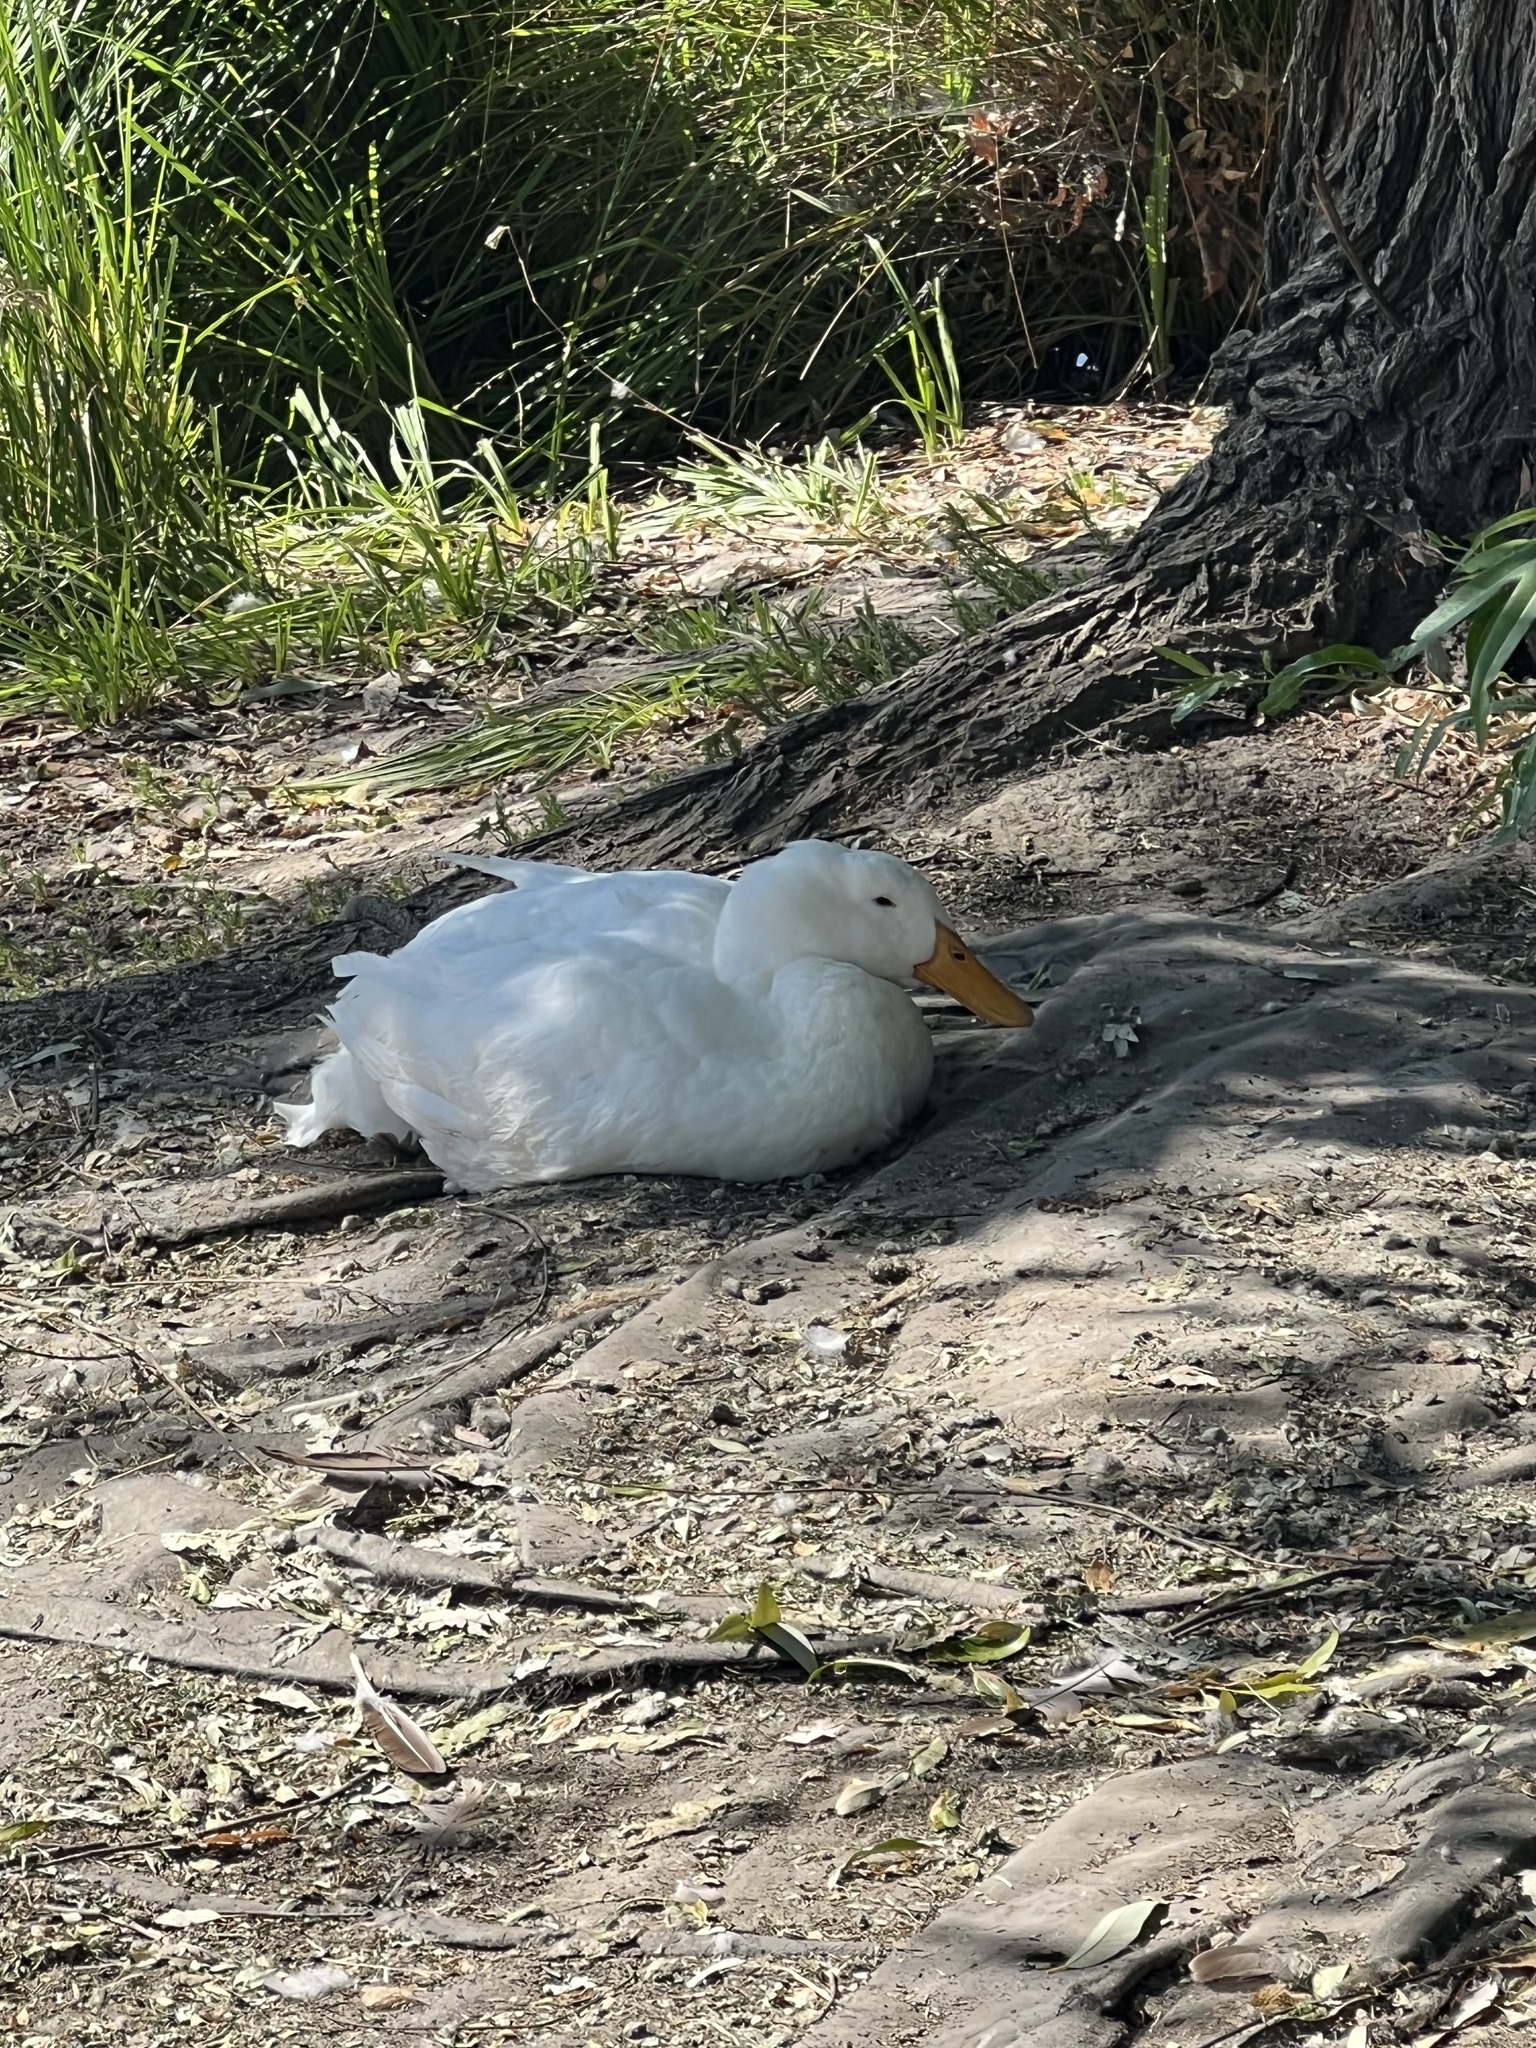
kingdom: Animalia
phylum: Chordata
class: Aves
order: Anseriformes
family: Anatidae
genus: Anas
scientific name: Anas platyrhynchos
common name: Mallard
